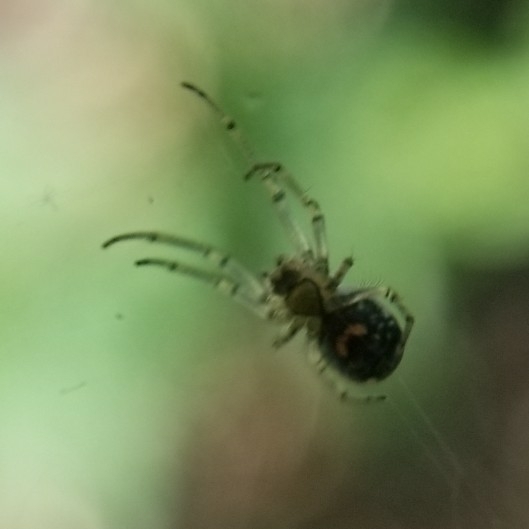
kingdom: Animalia
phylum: Arthropoda
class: Arachnida
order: Araneae
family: Tetragnathidae
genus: Leucauge
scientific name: Leucauge venusta
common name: Longjawed orb weavers
